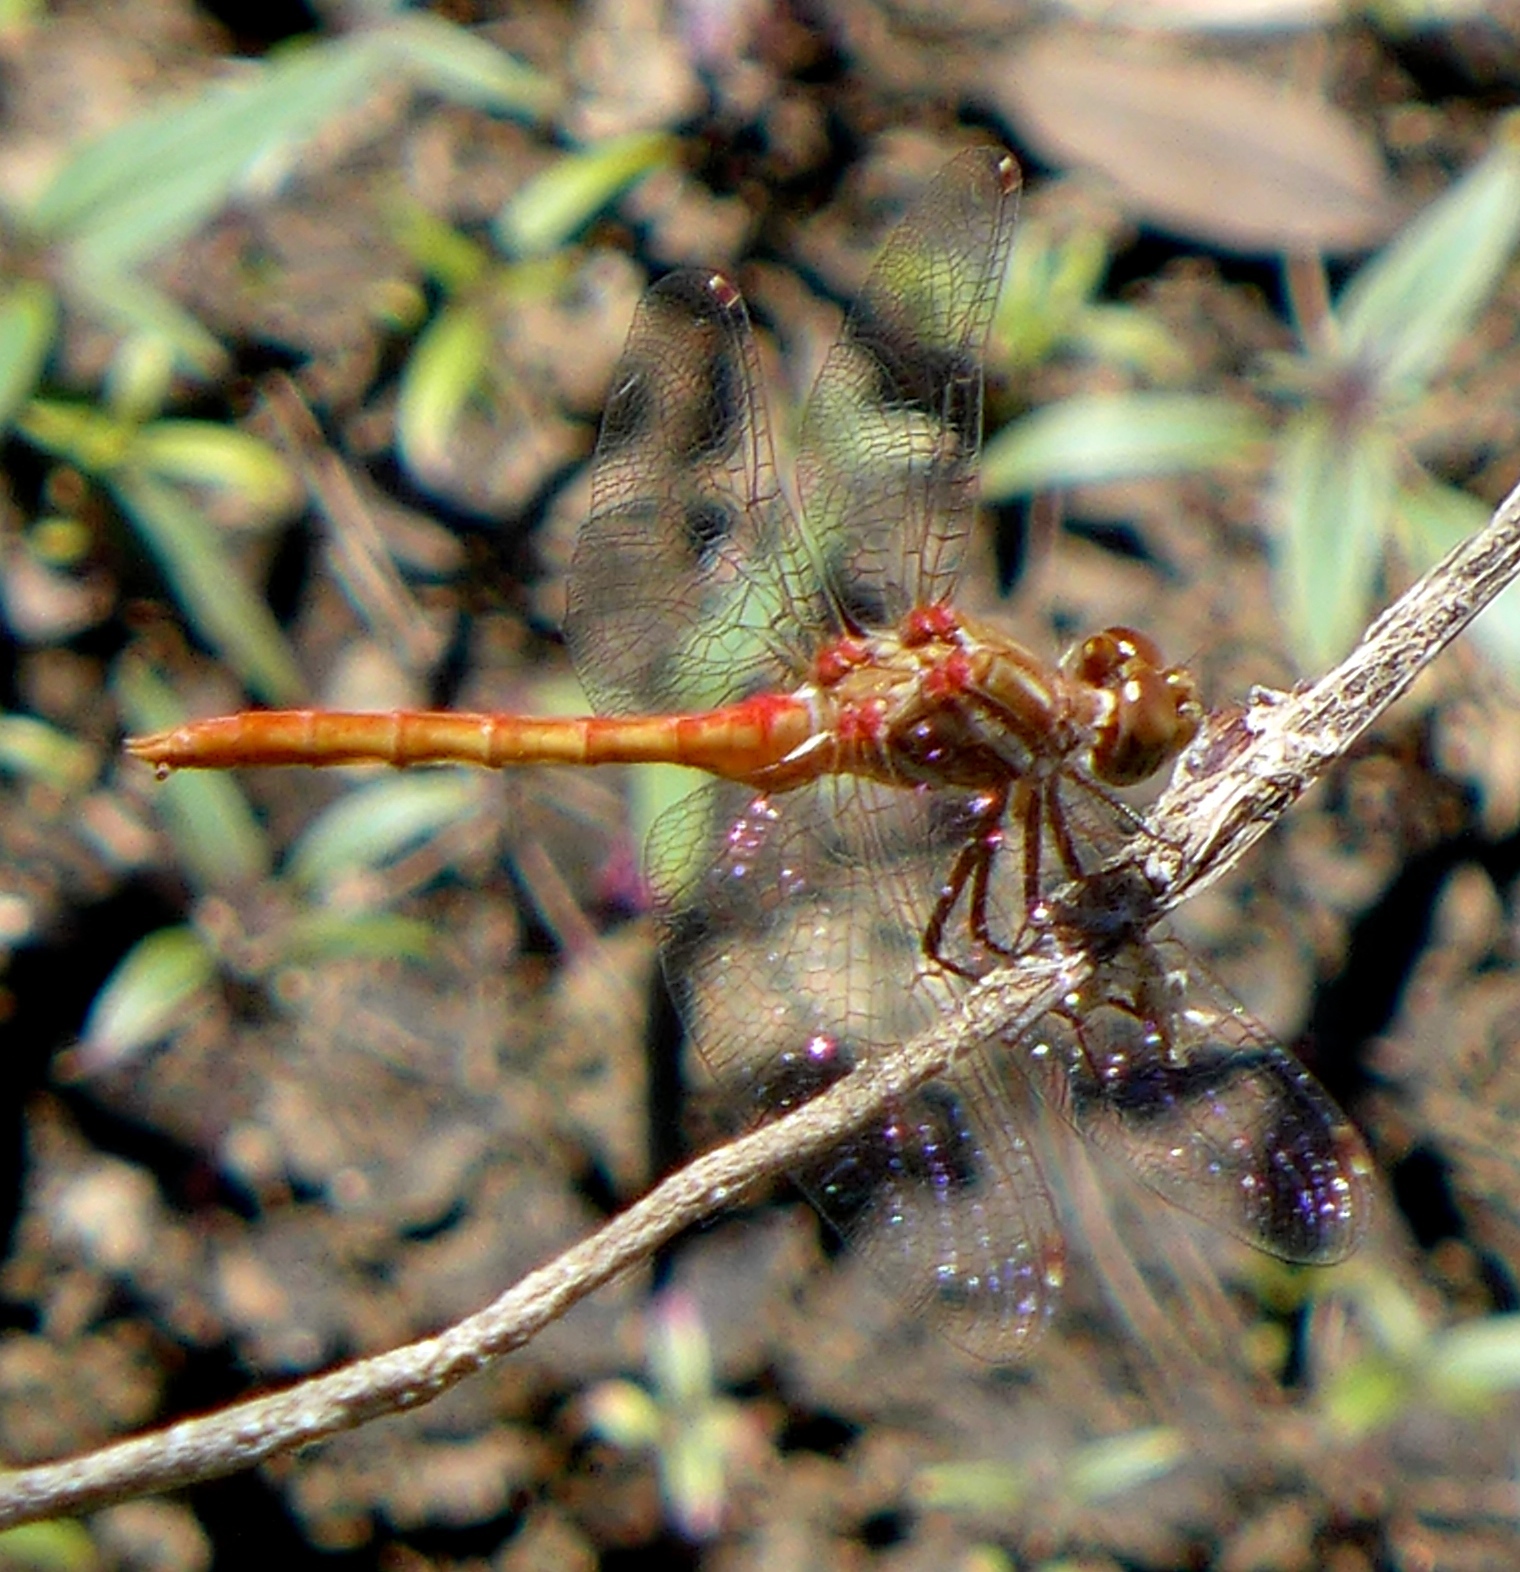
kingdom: Animalia
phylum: Arthropoda
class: Insecta
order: Odonata
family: Libellulidae
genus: Sympetrum
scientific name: Sympetrum pallipes
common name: Striped meadowhawk
